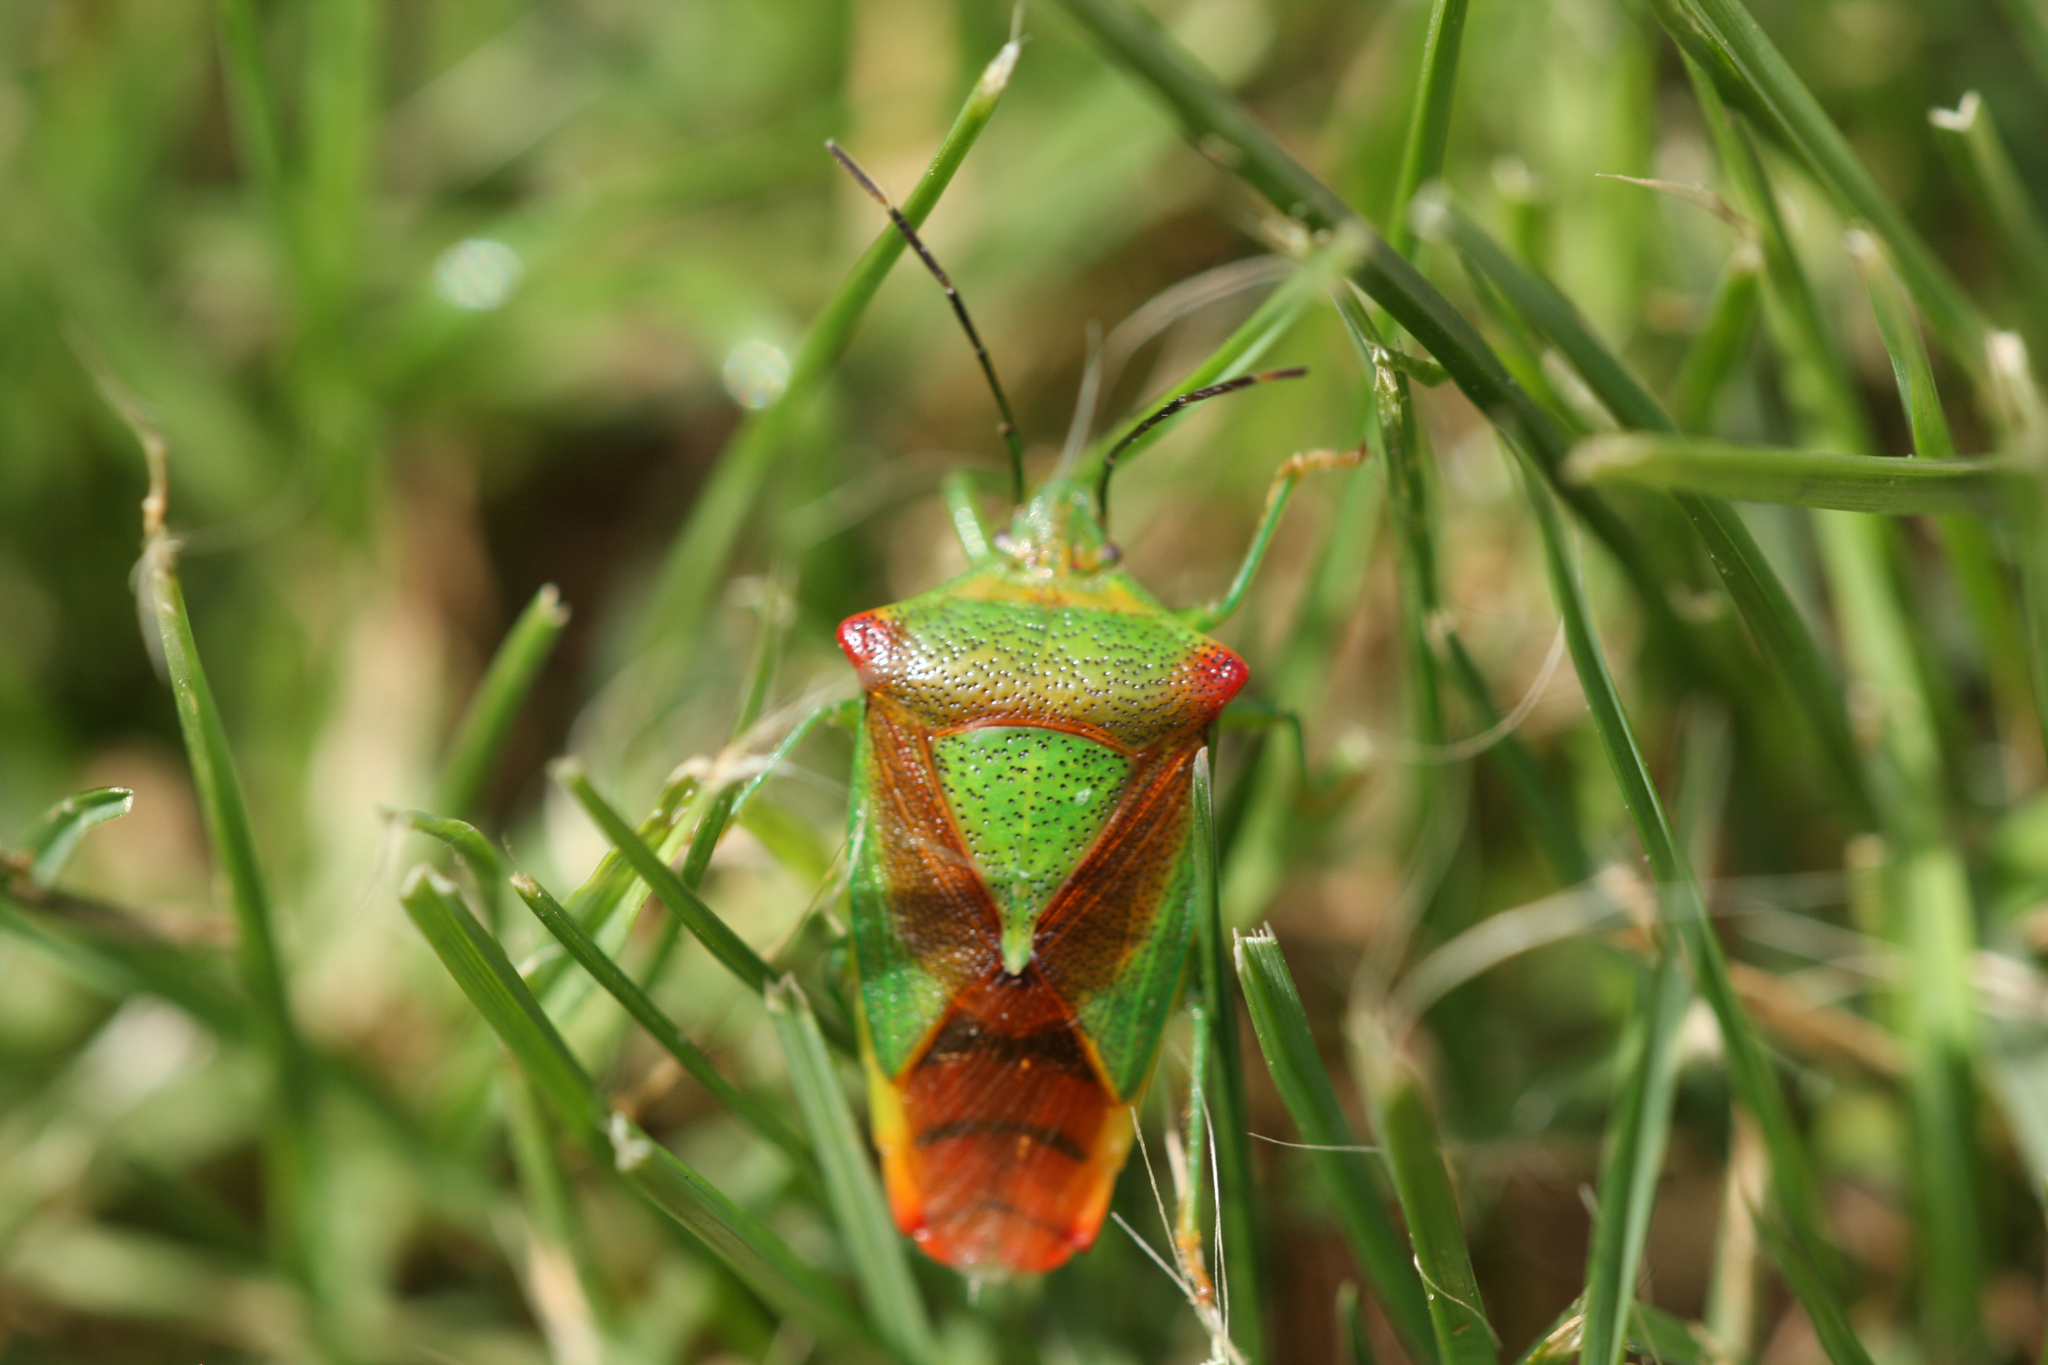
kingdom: Animalia
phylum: Arthropoda
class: Insecta
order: Hemiptera
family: Acanthosomatidae
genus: Acanthosoma
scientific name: Acanthosoma haemorrhoidale
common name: Hawthorn shieldbug
